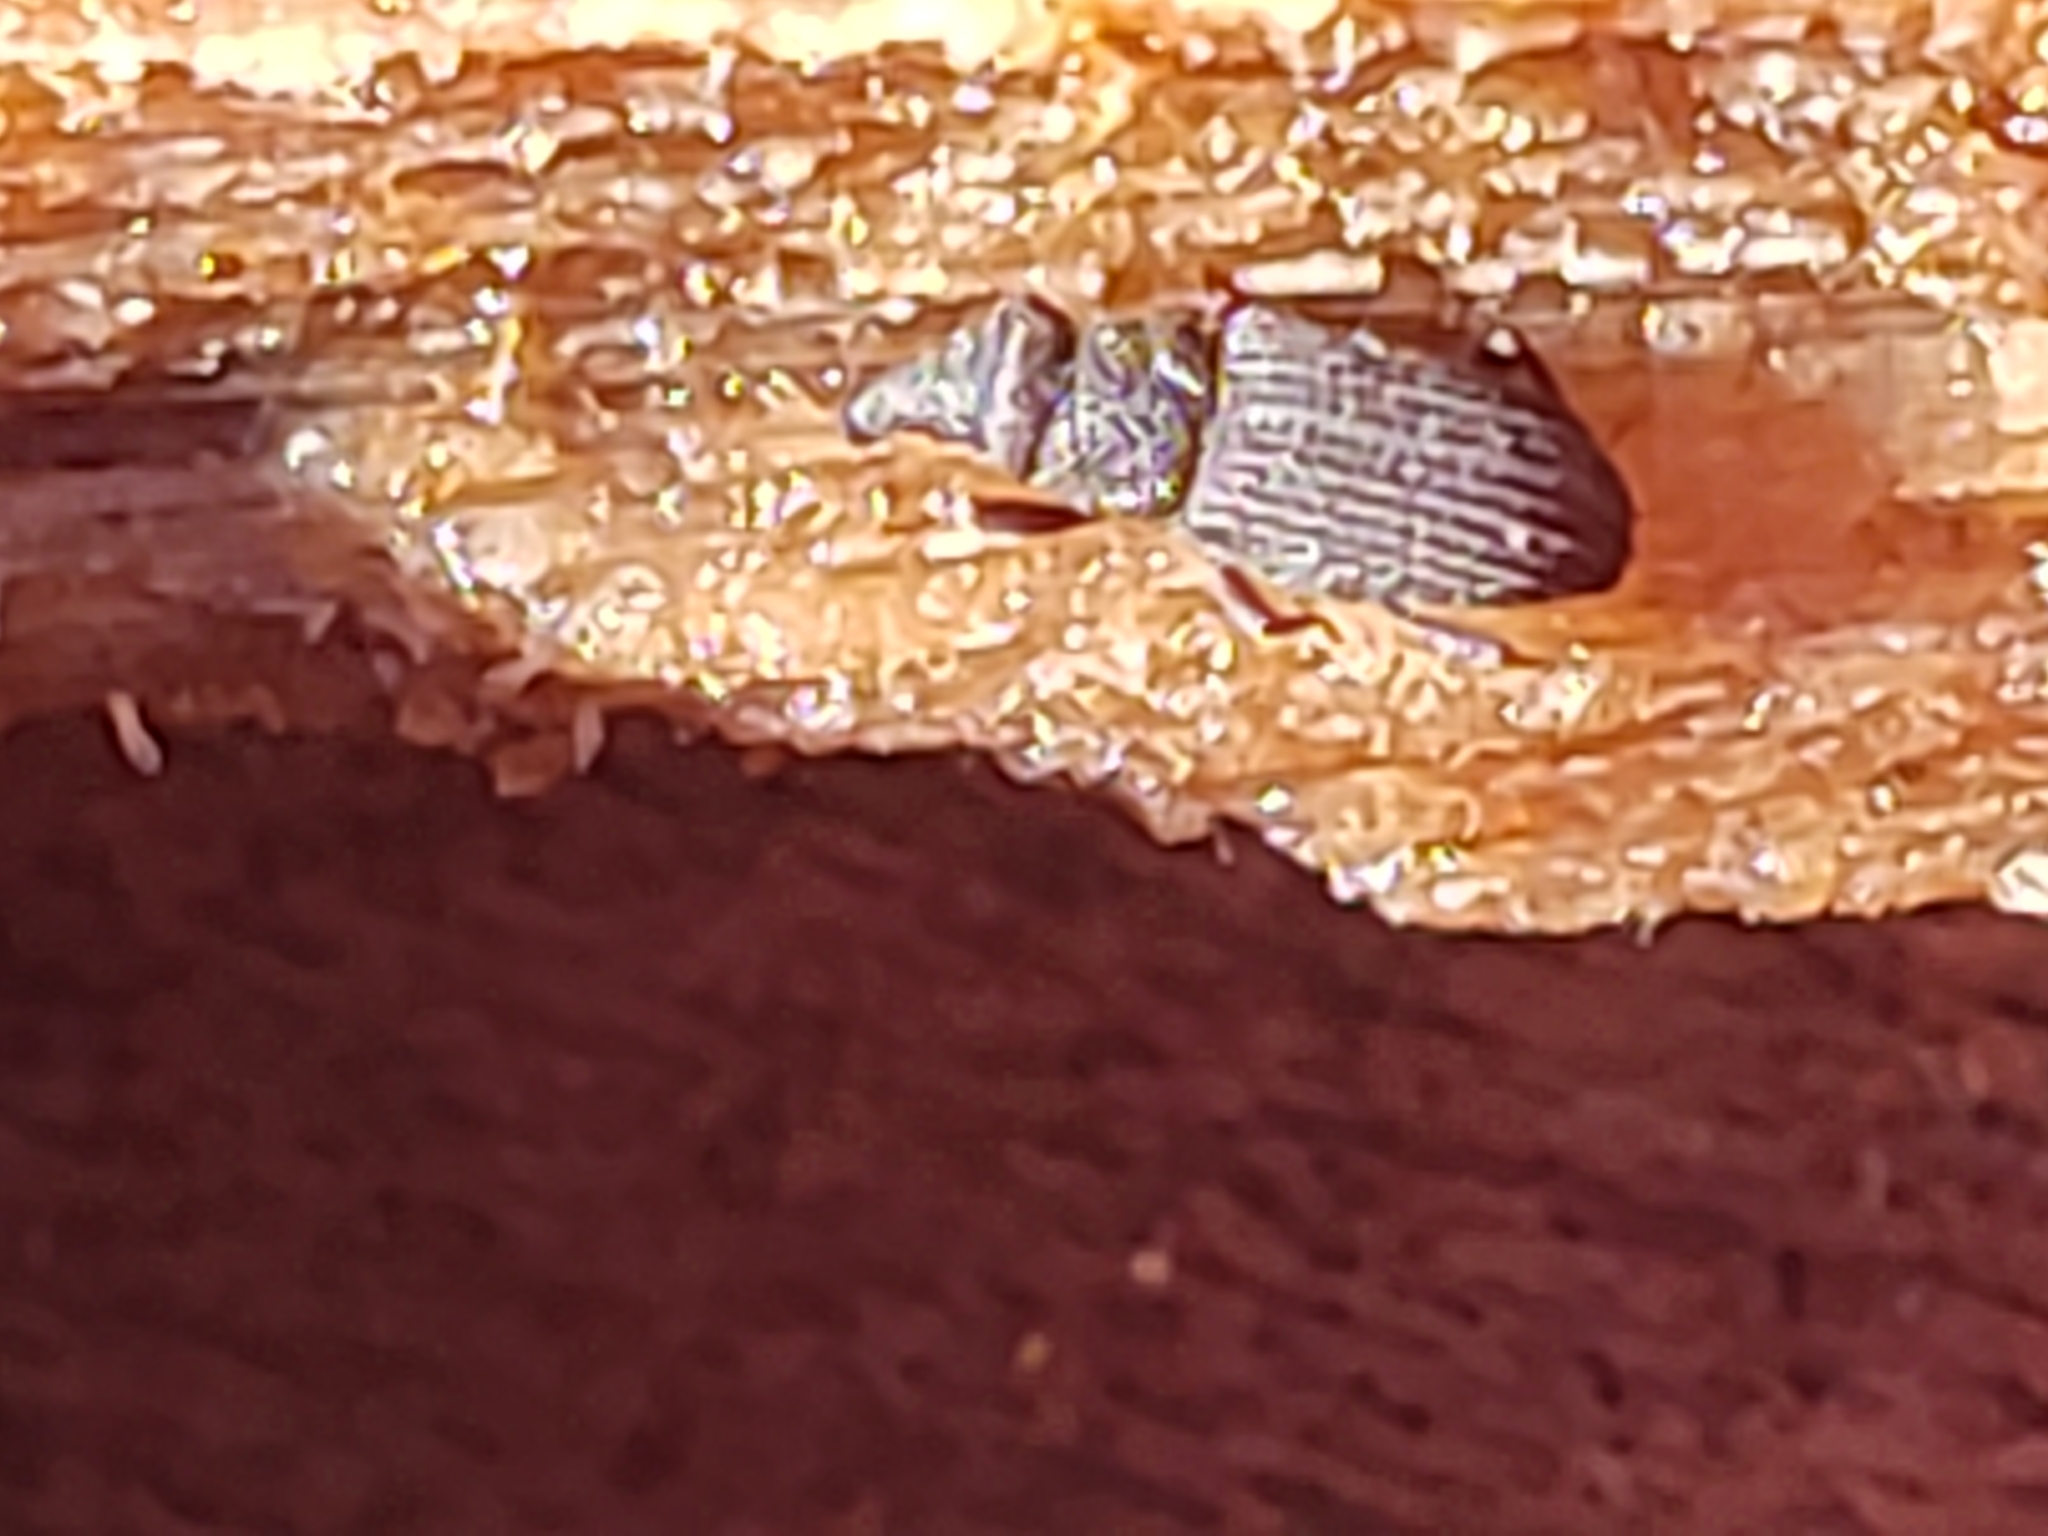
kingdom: Animalia
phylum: Arthropoda
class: Insecta
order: Coleoptera
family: Dryophthoridae
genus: Dryophthorus
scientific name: Dryophthorus americanus
